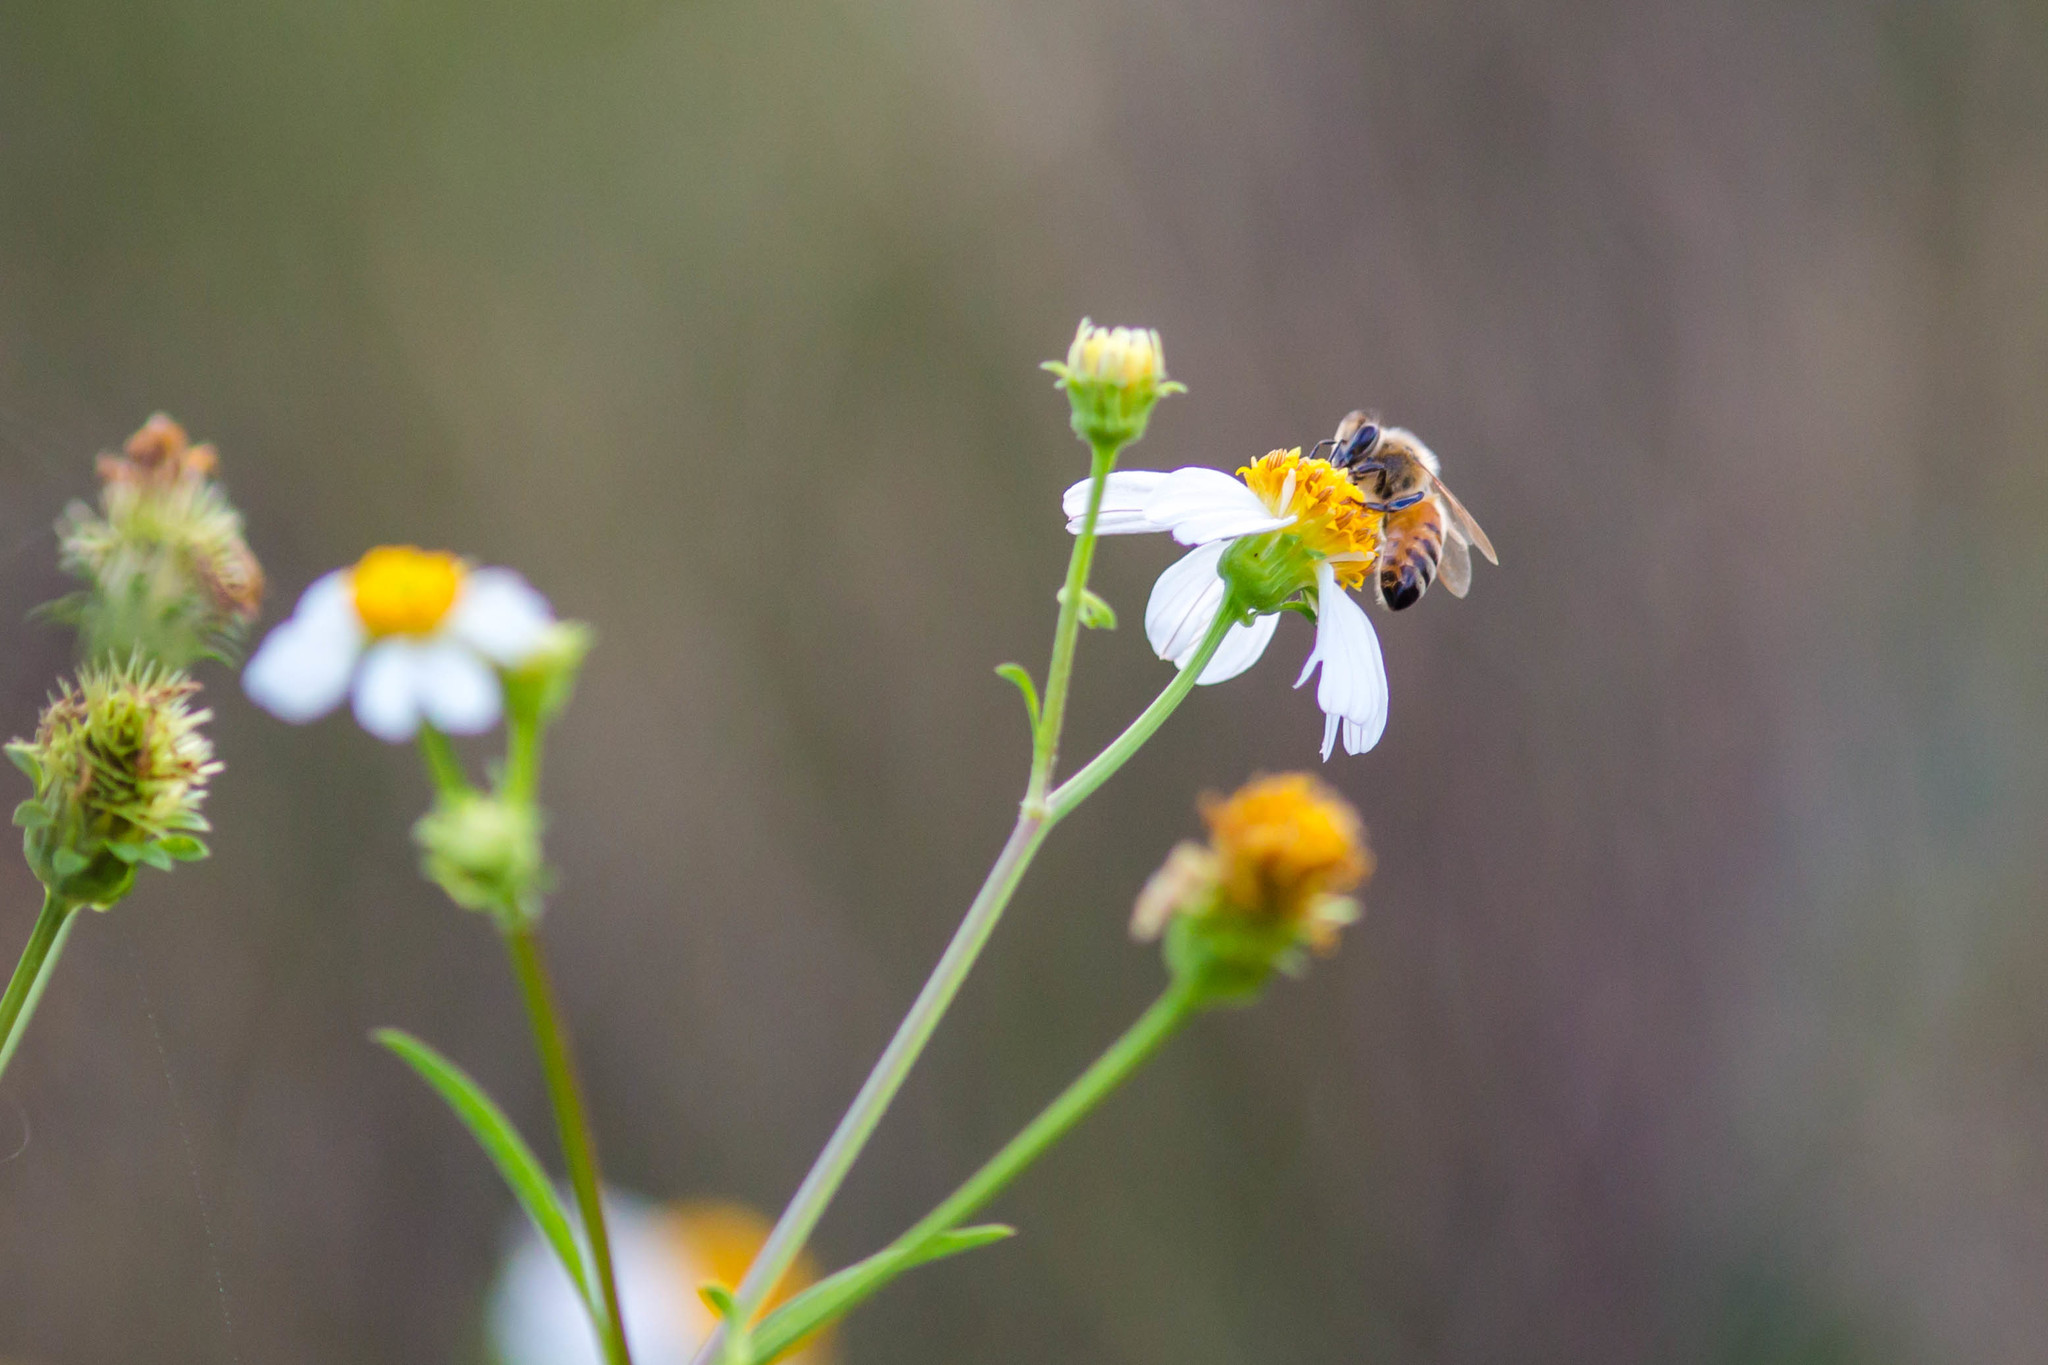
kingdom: Animalia
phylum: Arthropoda
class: Insecta
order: Hymenoptera
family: Apidae
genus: Apis
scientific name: Apis mellifera
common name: Honey bee
